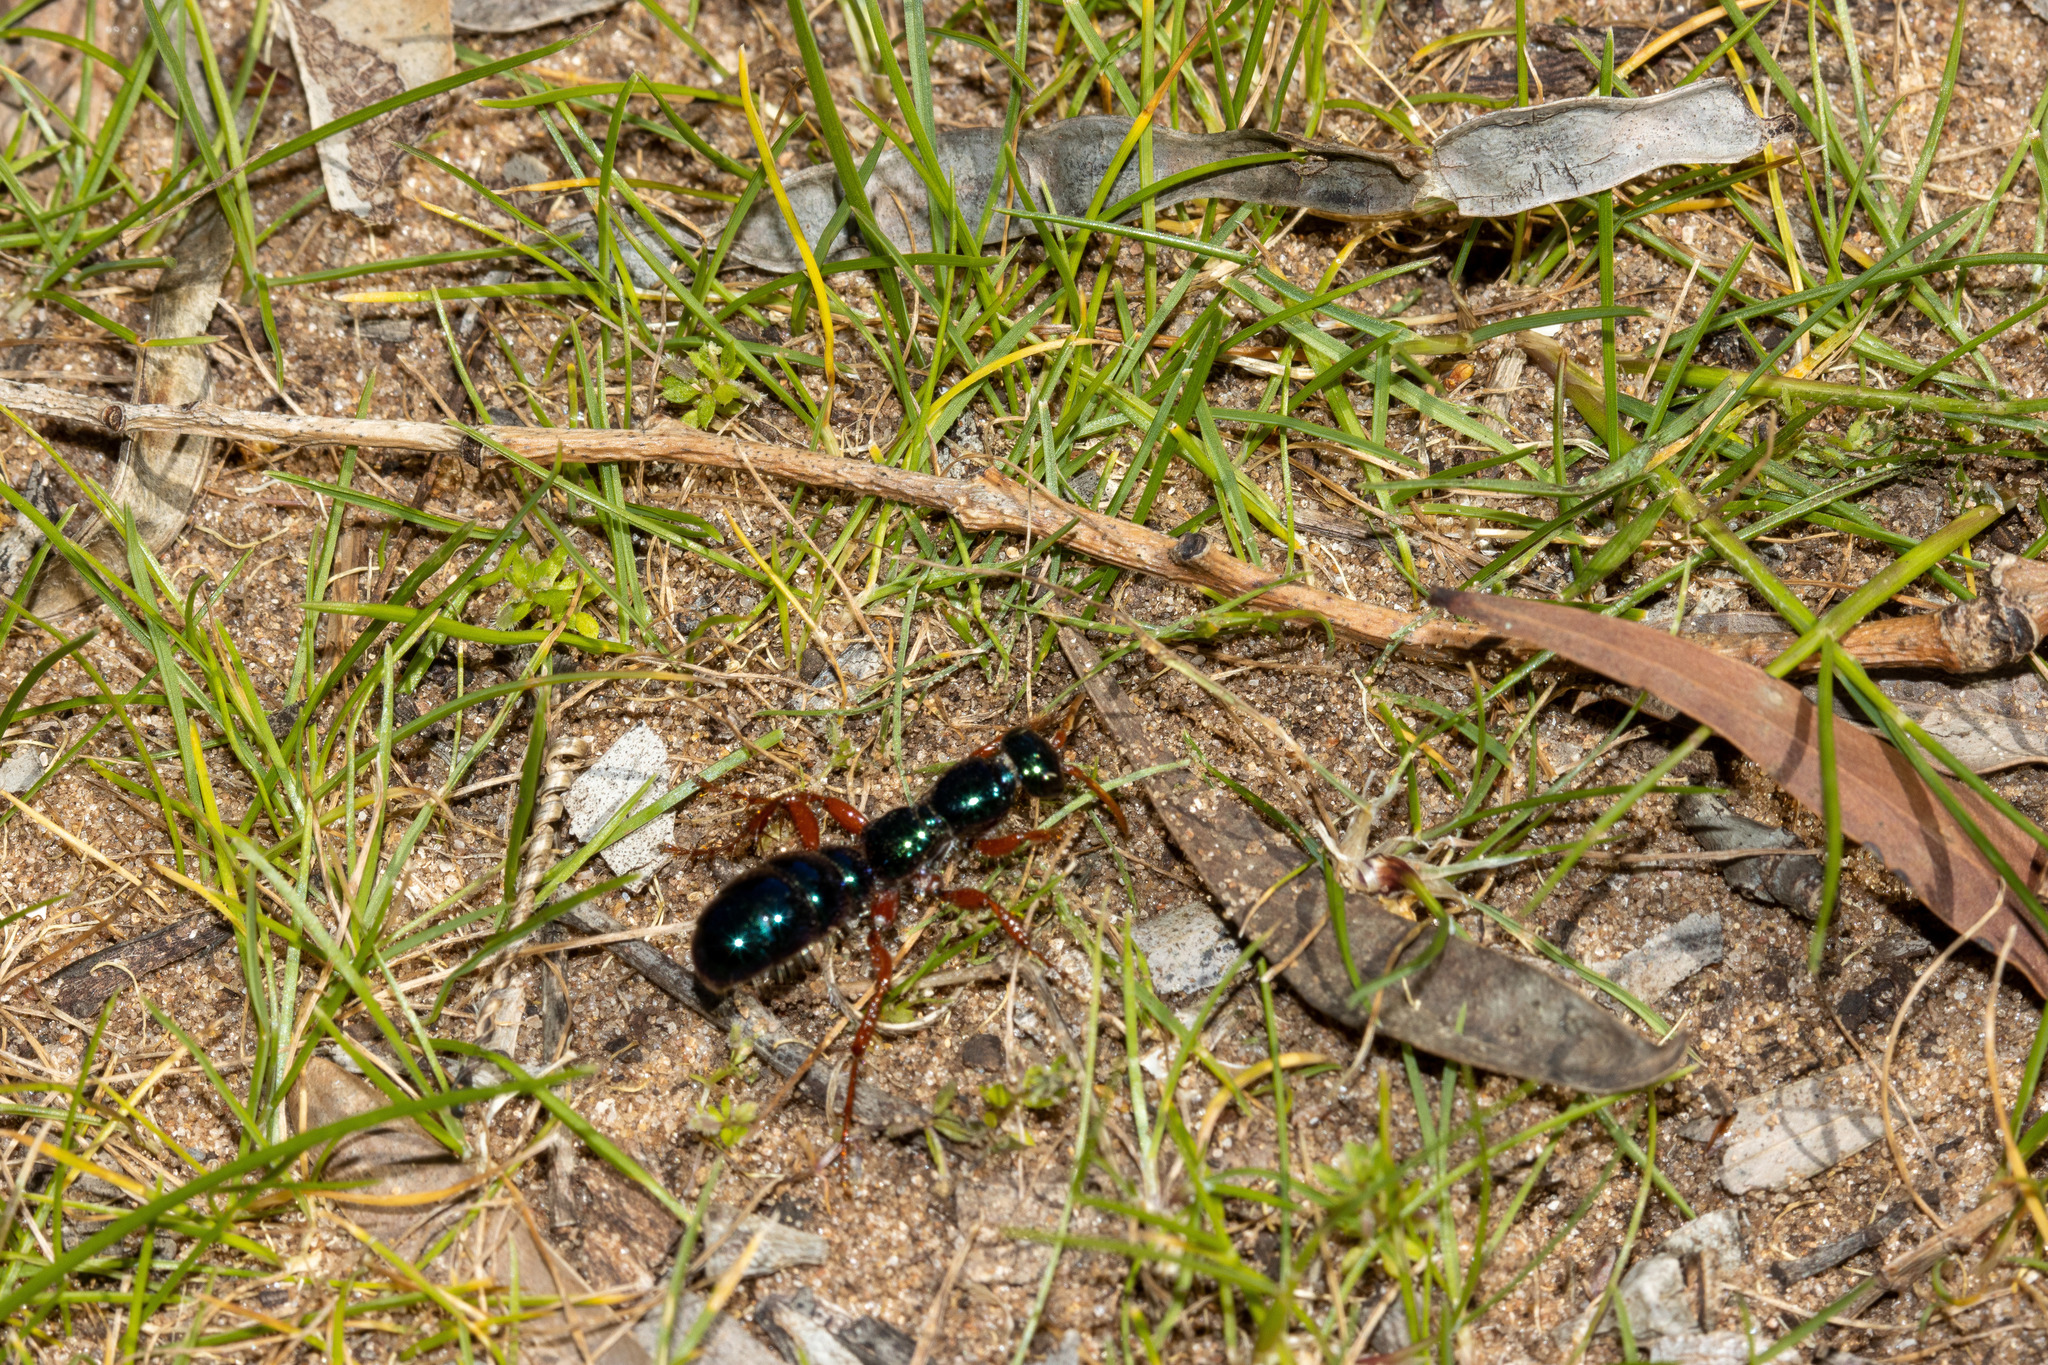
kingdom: Animalia
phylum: Arthropoda
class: Insecta
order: Hymenoptera
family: Tiphiidae
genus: Diamma
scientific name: Diamma
